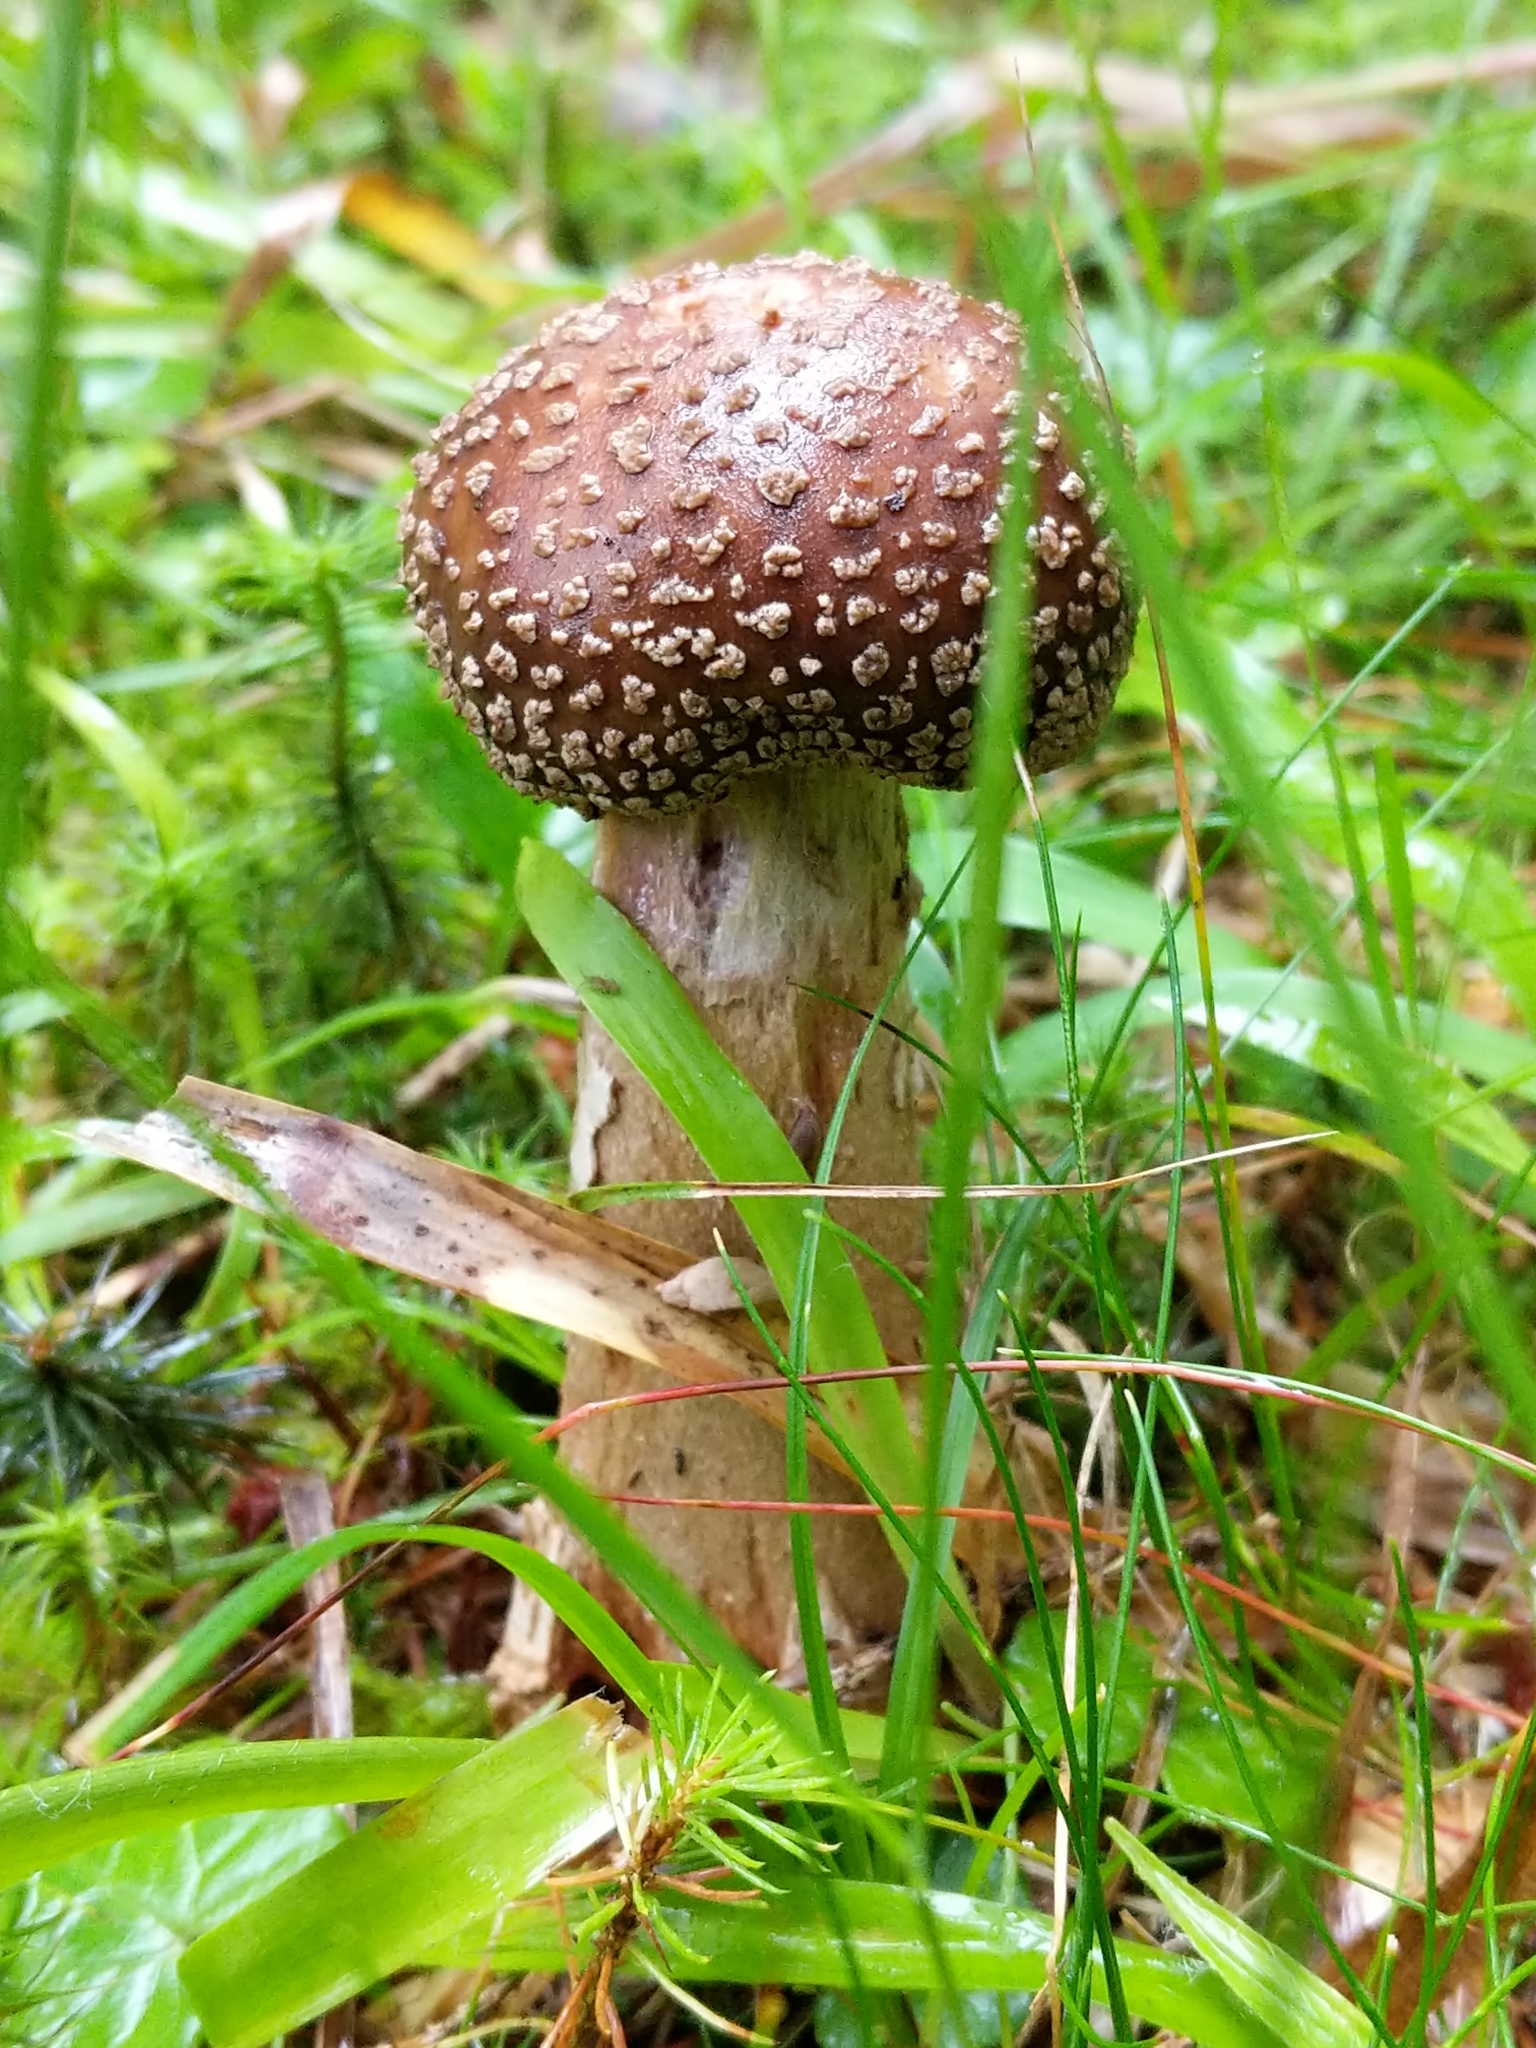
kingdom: Fungi
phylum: Basidiomycota
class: Agaricomycetes
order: Agaricales
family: Amanitaceae
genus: Amanita
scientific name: Amanita rubescens
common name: Blusher
